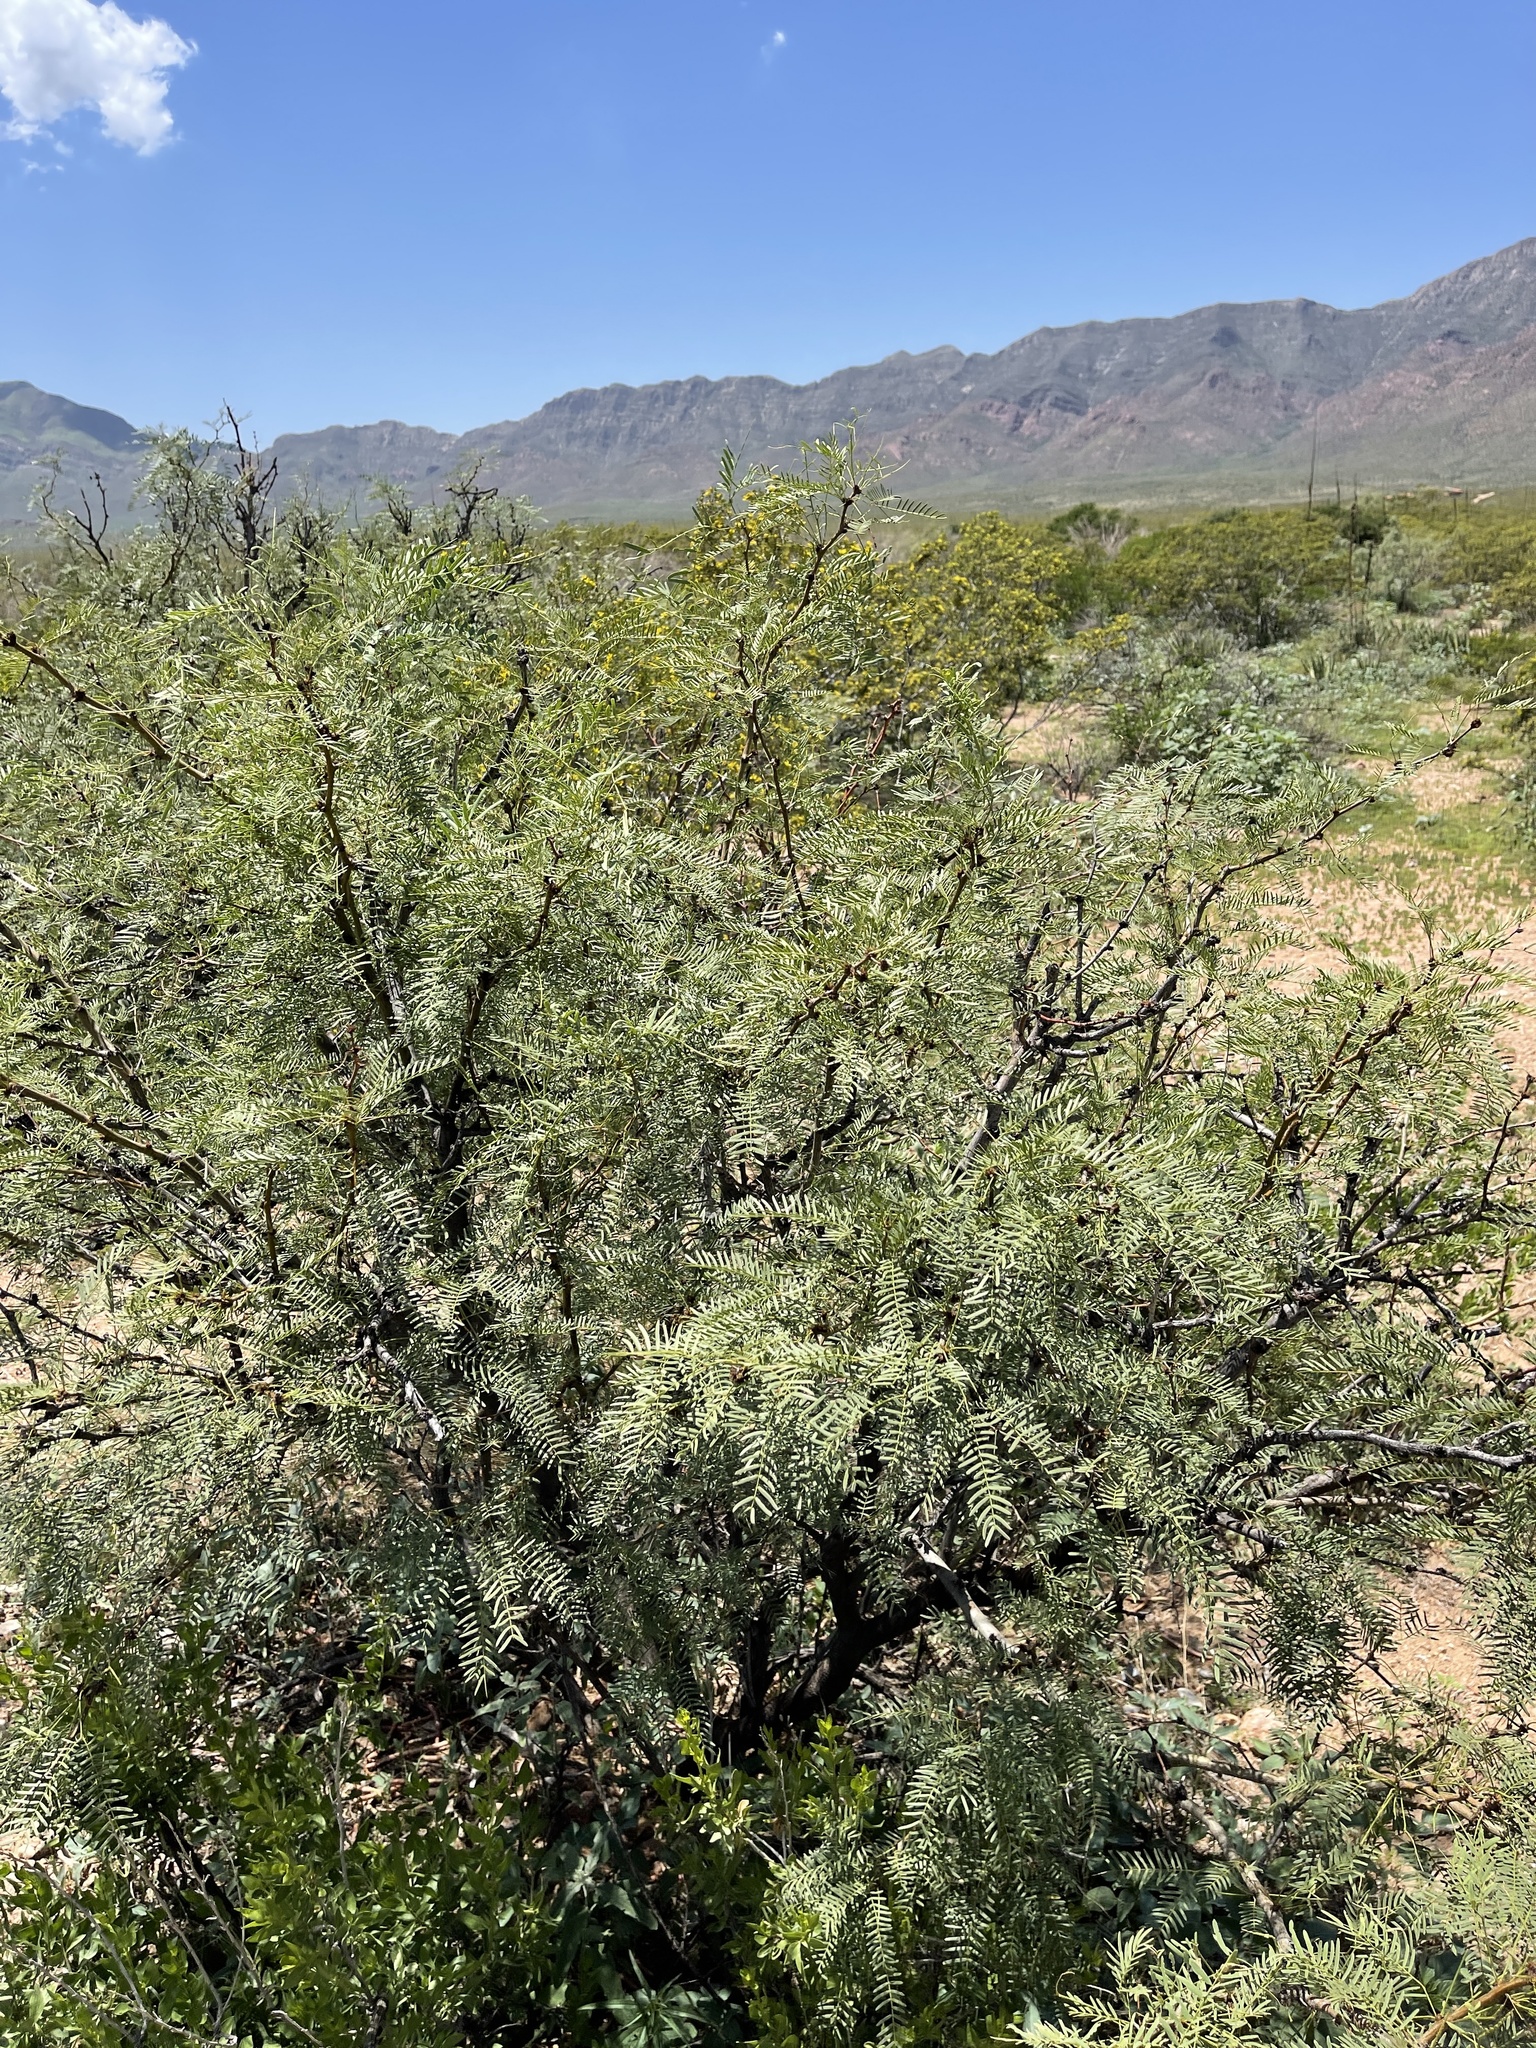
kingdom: Plantae
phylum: Tracheophyta
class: Magnoliopsida
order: Fabales
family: Fabaceae
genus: Prosopis
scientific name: Prosopis glandulosa
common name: Honey mesquite
